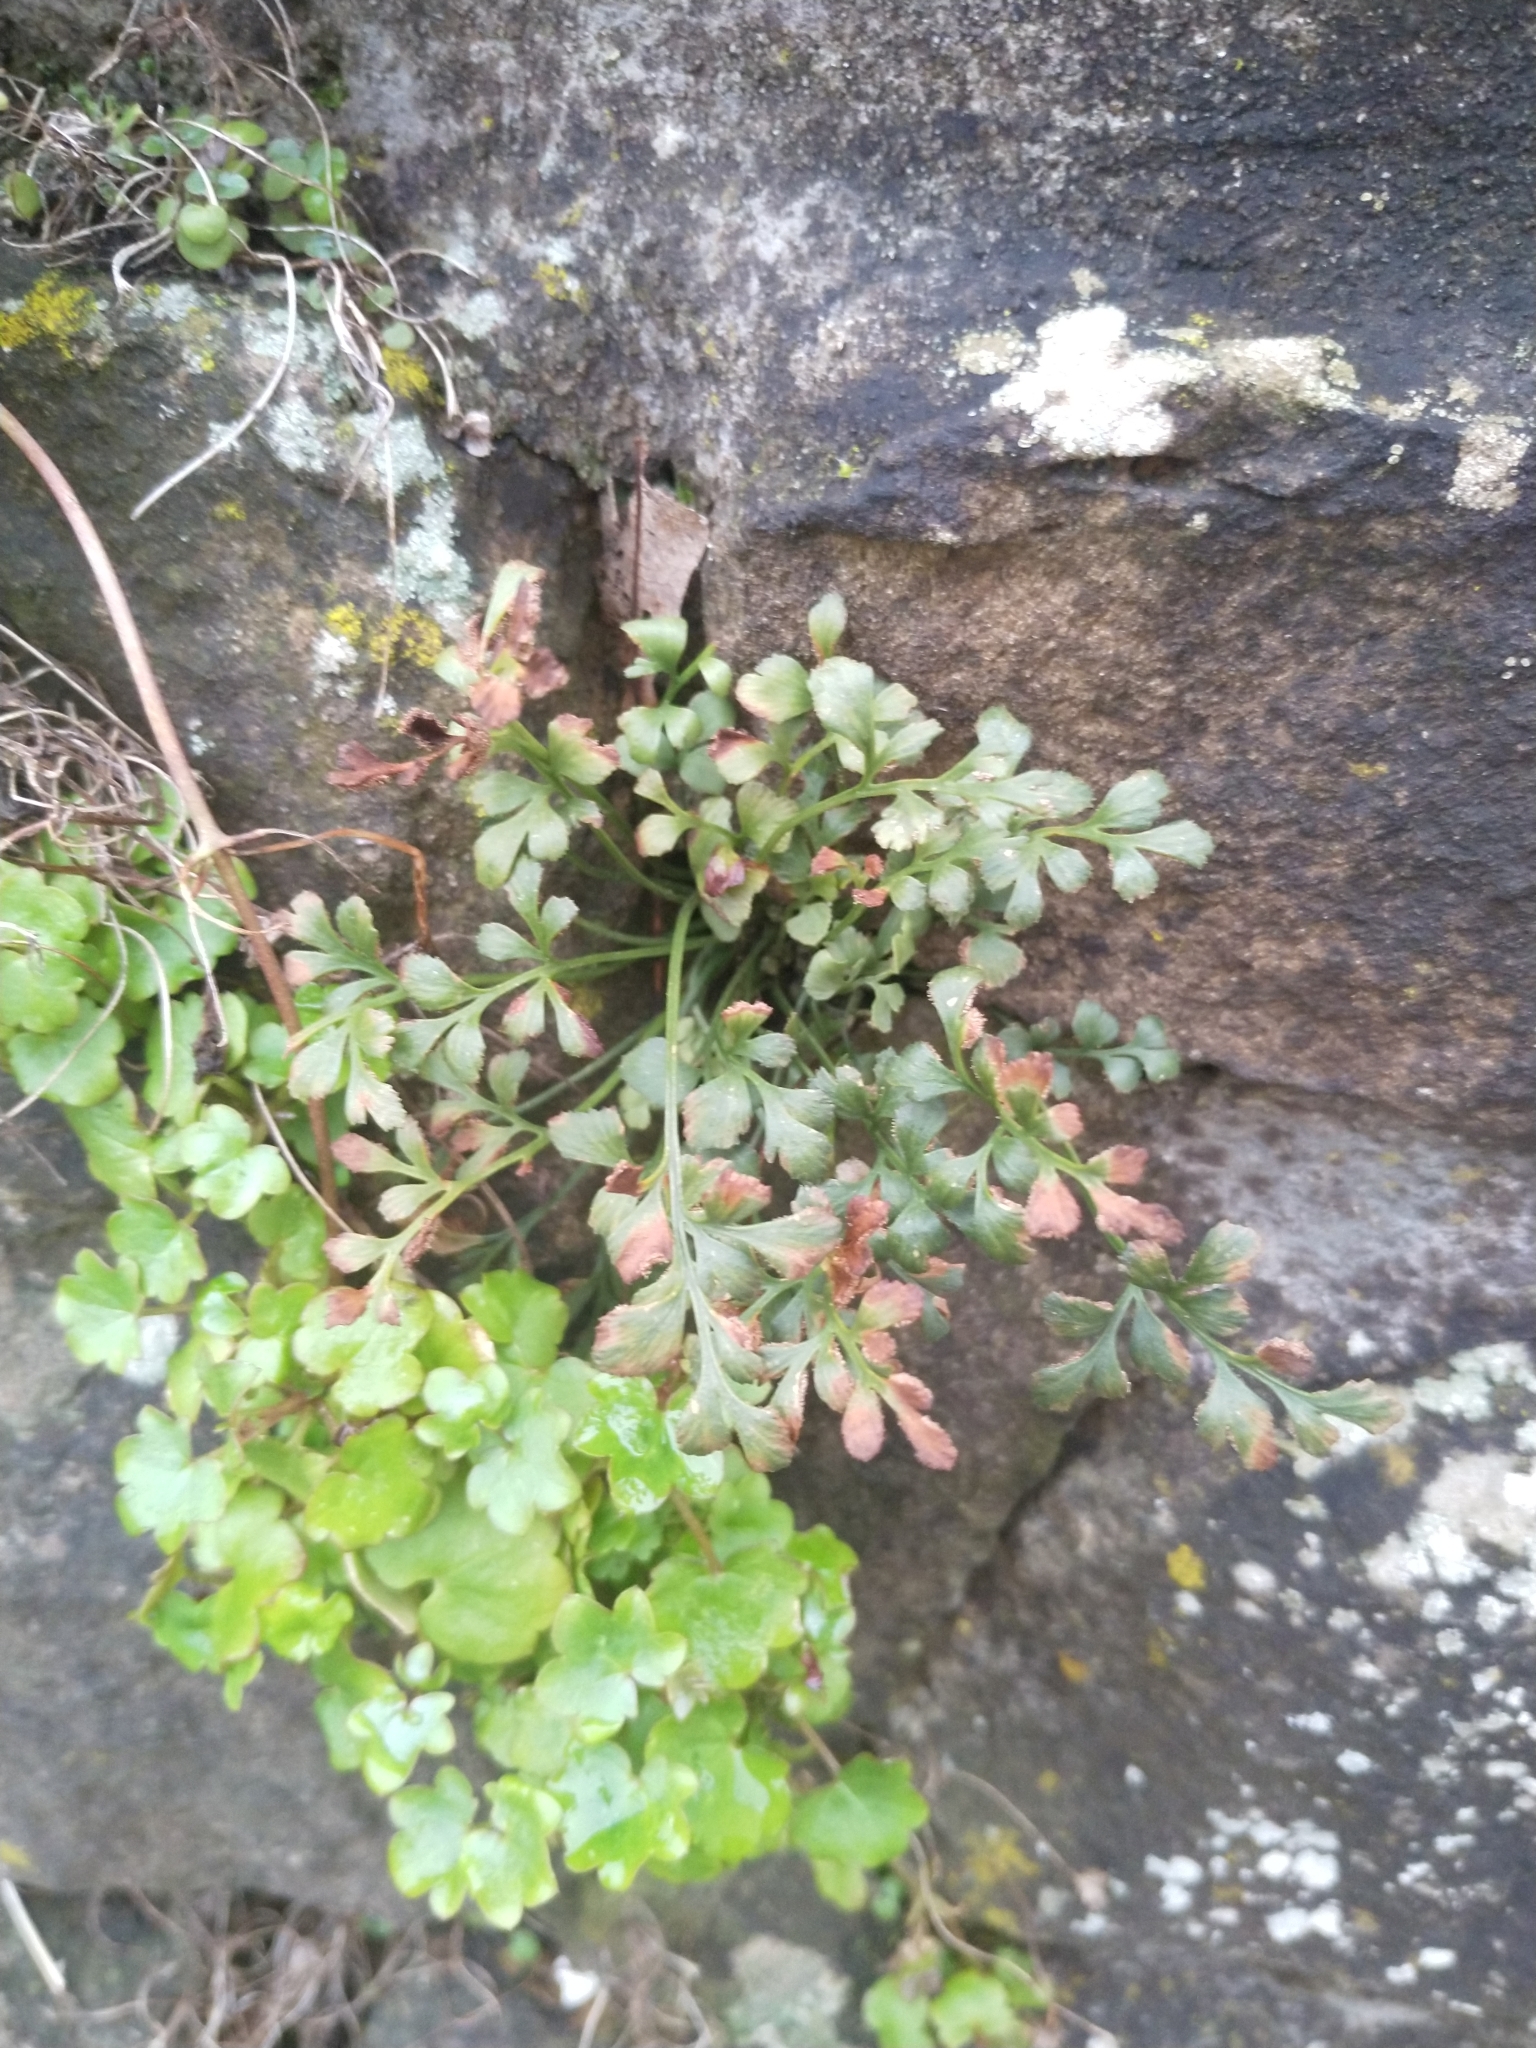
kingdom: Plantae
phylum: Tracheophyta
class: Polypodiopsida
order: Polypodiales
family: Aspleniaceae
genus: Asplenium
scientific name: Asplenium ruta-muraria
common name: Wall-rue
